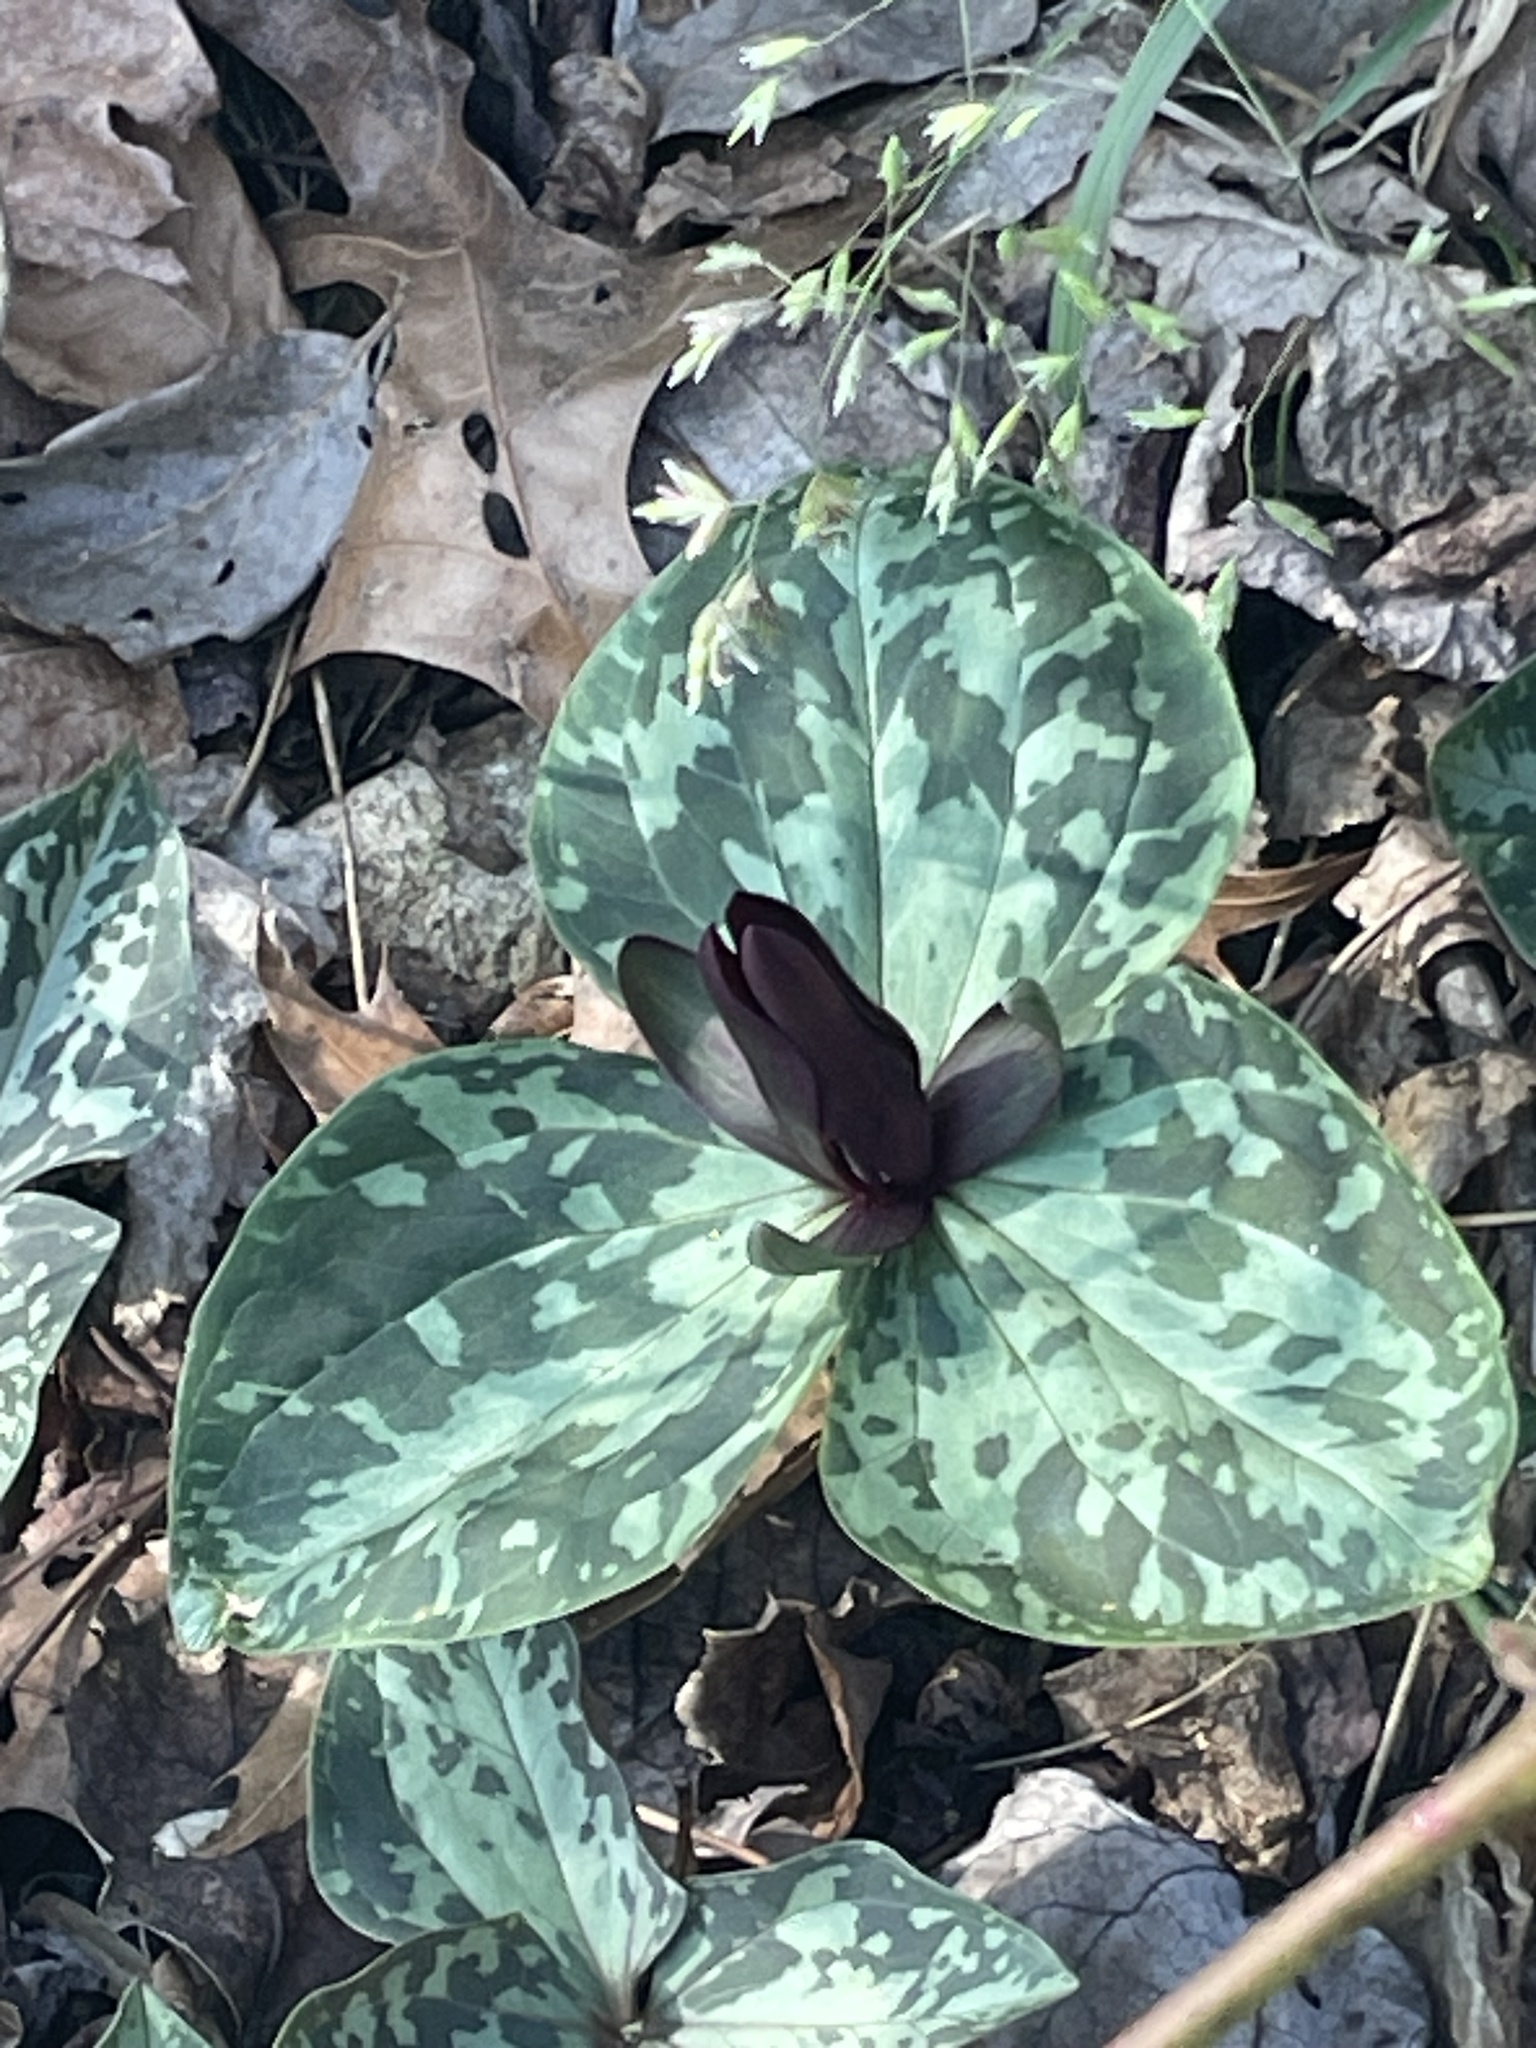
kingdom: Plantae
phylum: Tracheophyta
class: Liliopsida
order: Liliales
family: Melanthiaceae
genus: Trillium
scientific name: Trillium cuneatum
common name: Cuneate trillium
